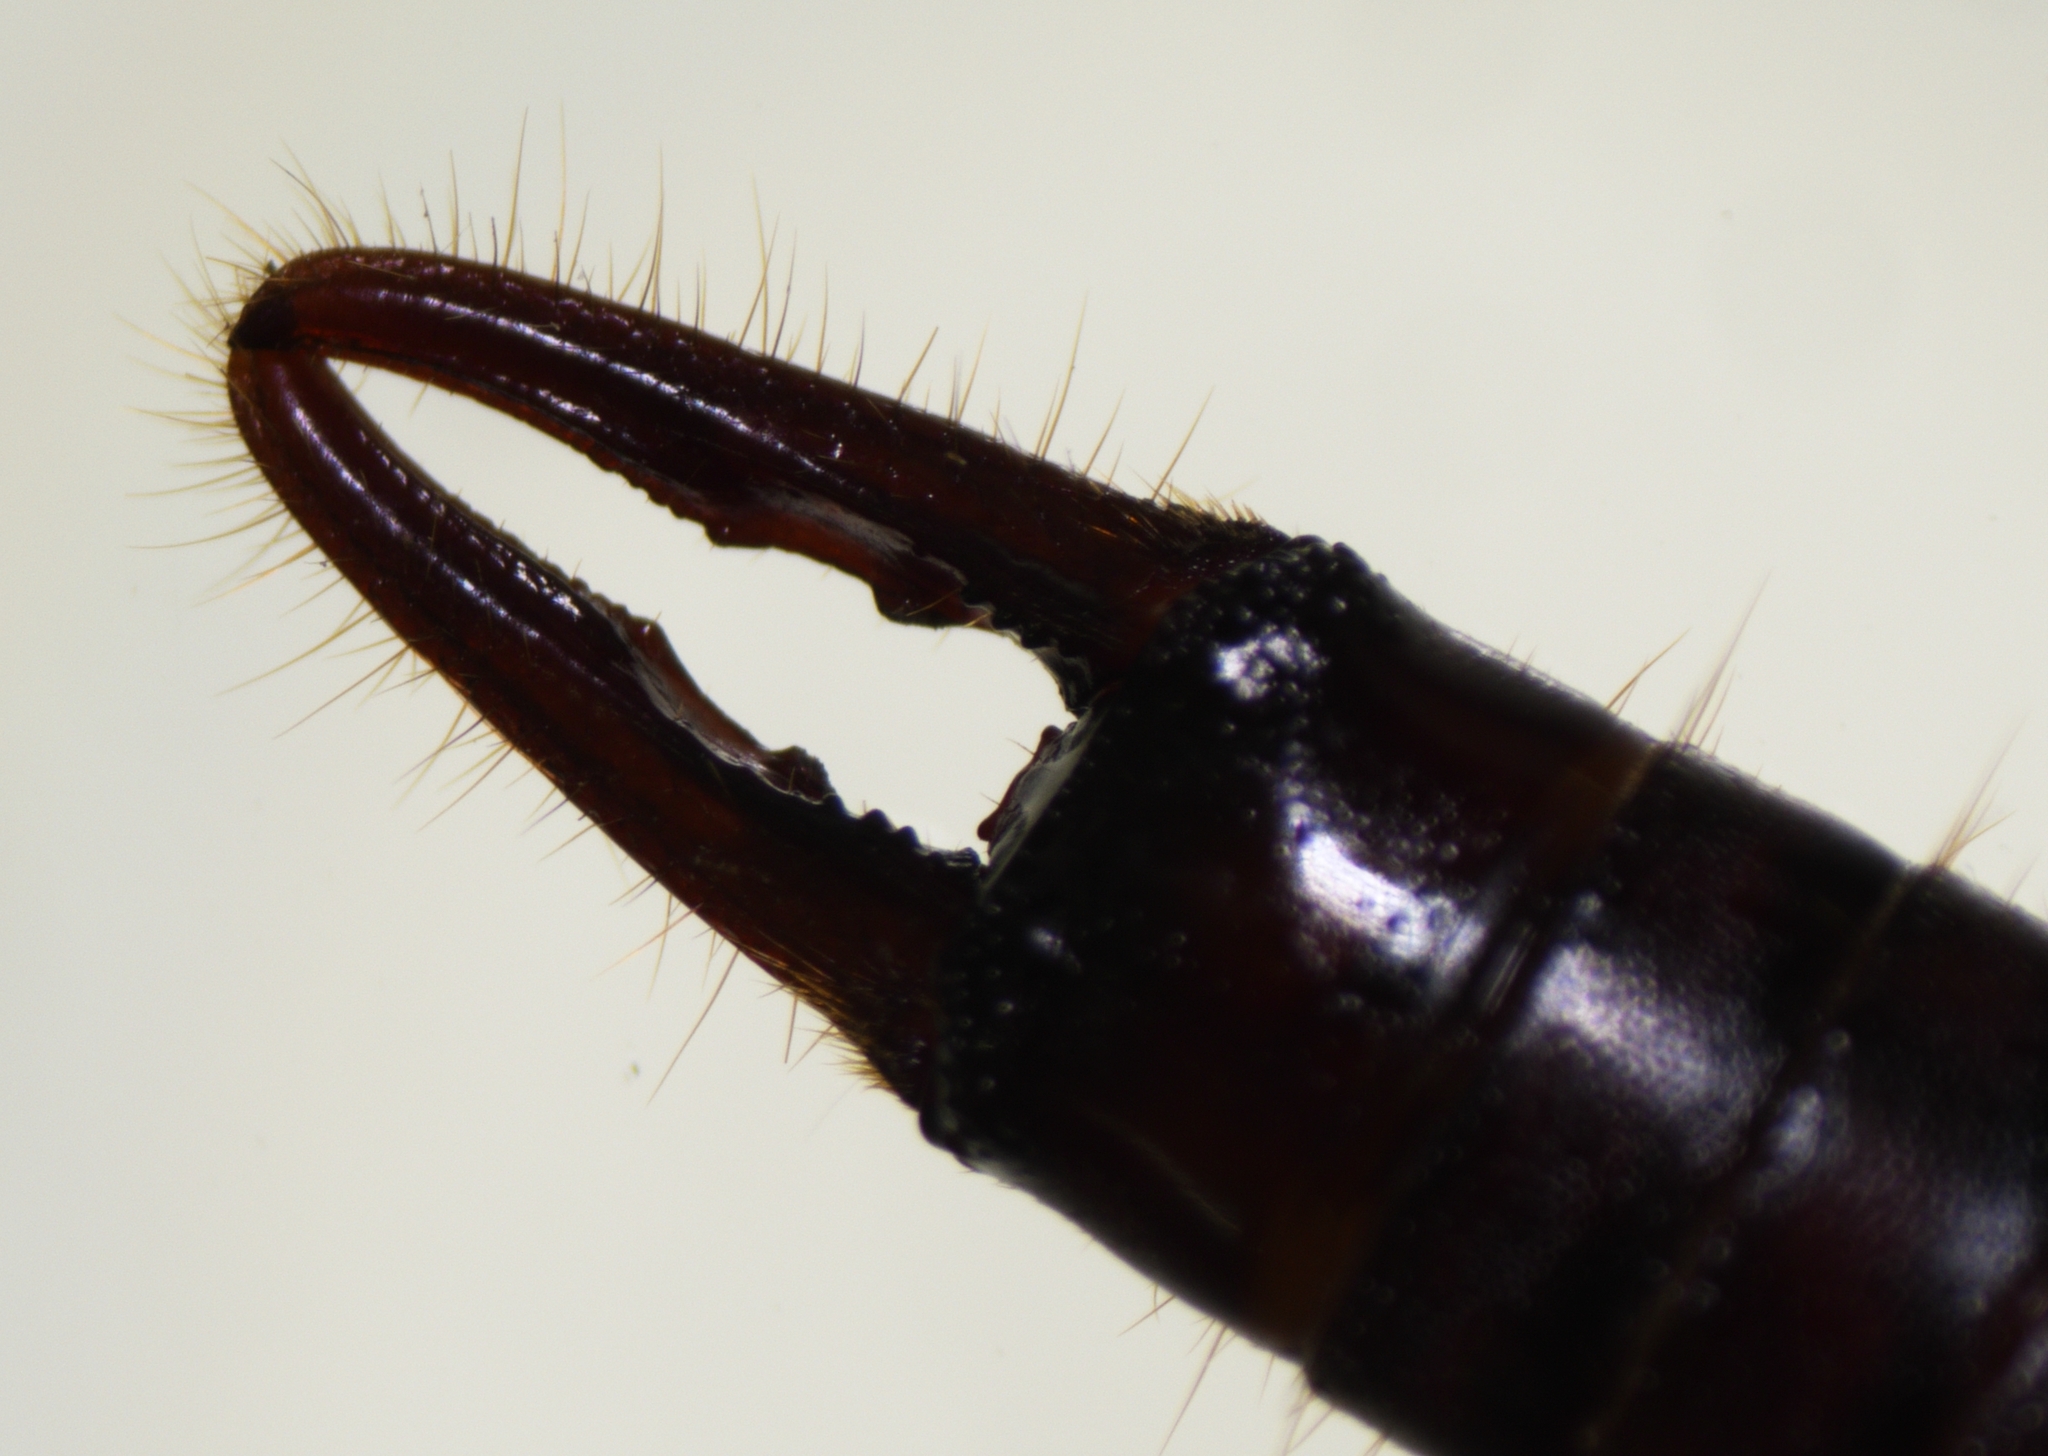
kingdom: Animalia
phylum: Arthropoda
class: Insecta
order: Dermaptera
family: Spongiphoridae
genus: Sphingolabis
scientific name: Sphingolabis hawaiiensis
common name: Earwig
